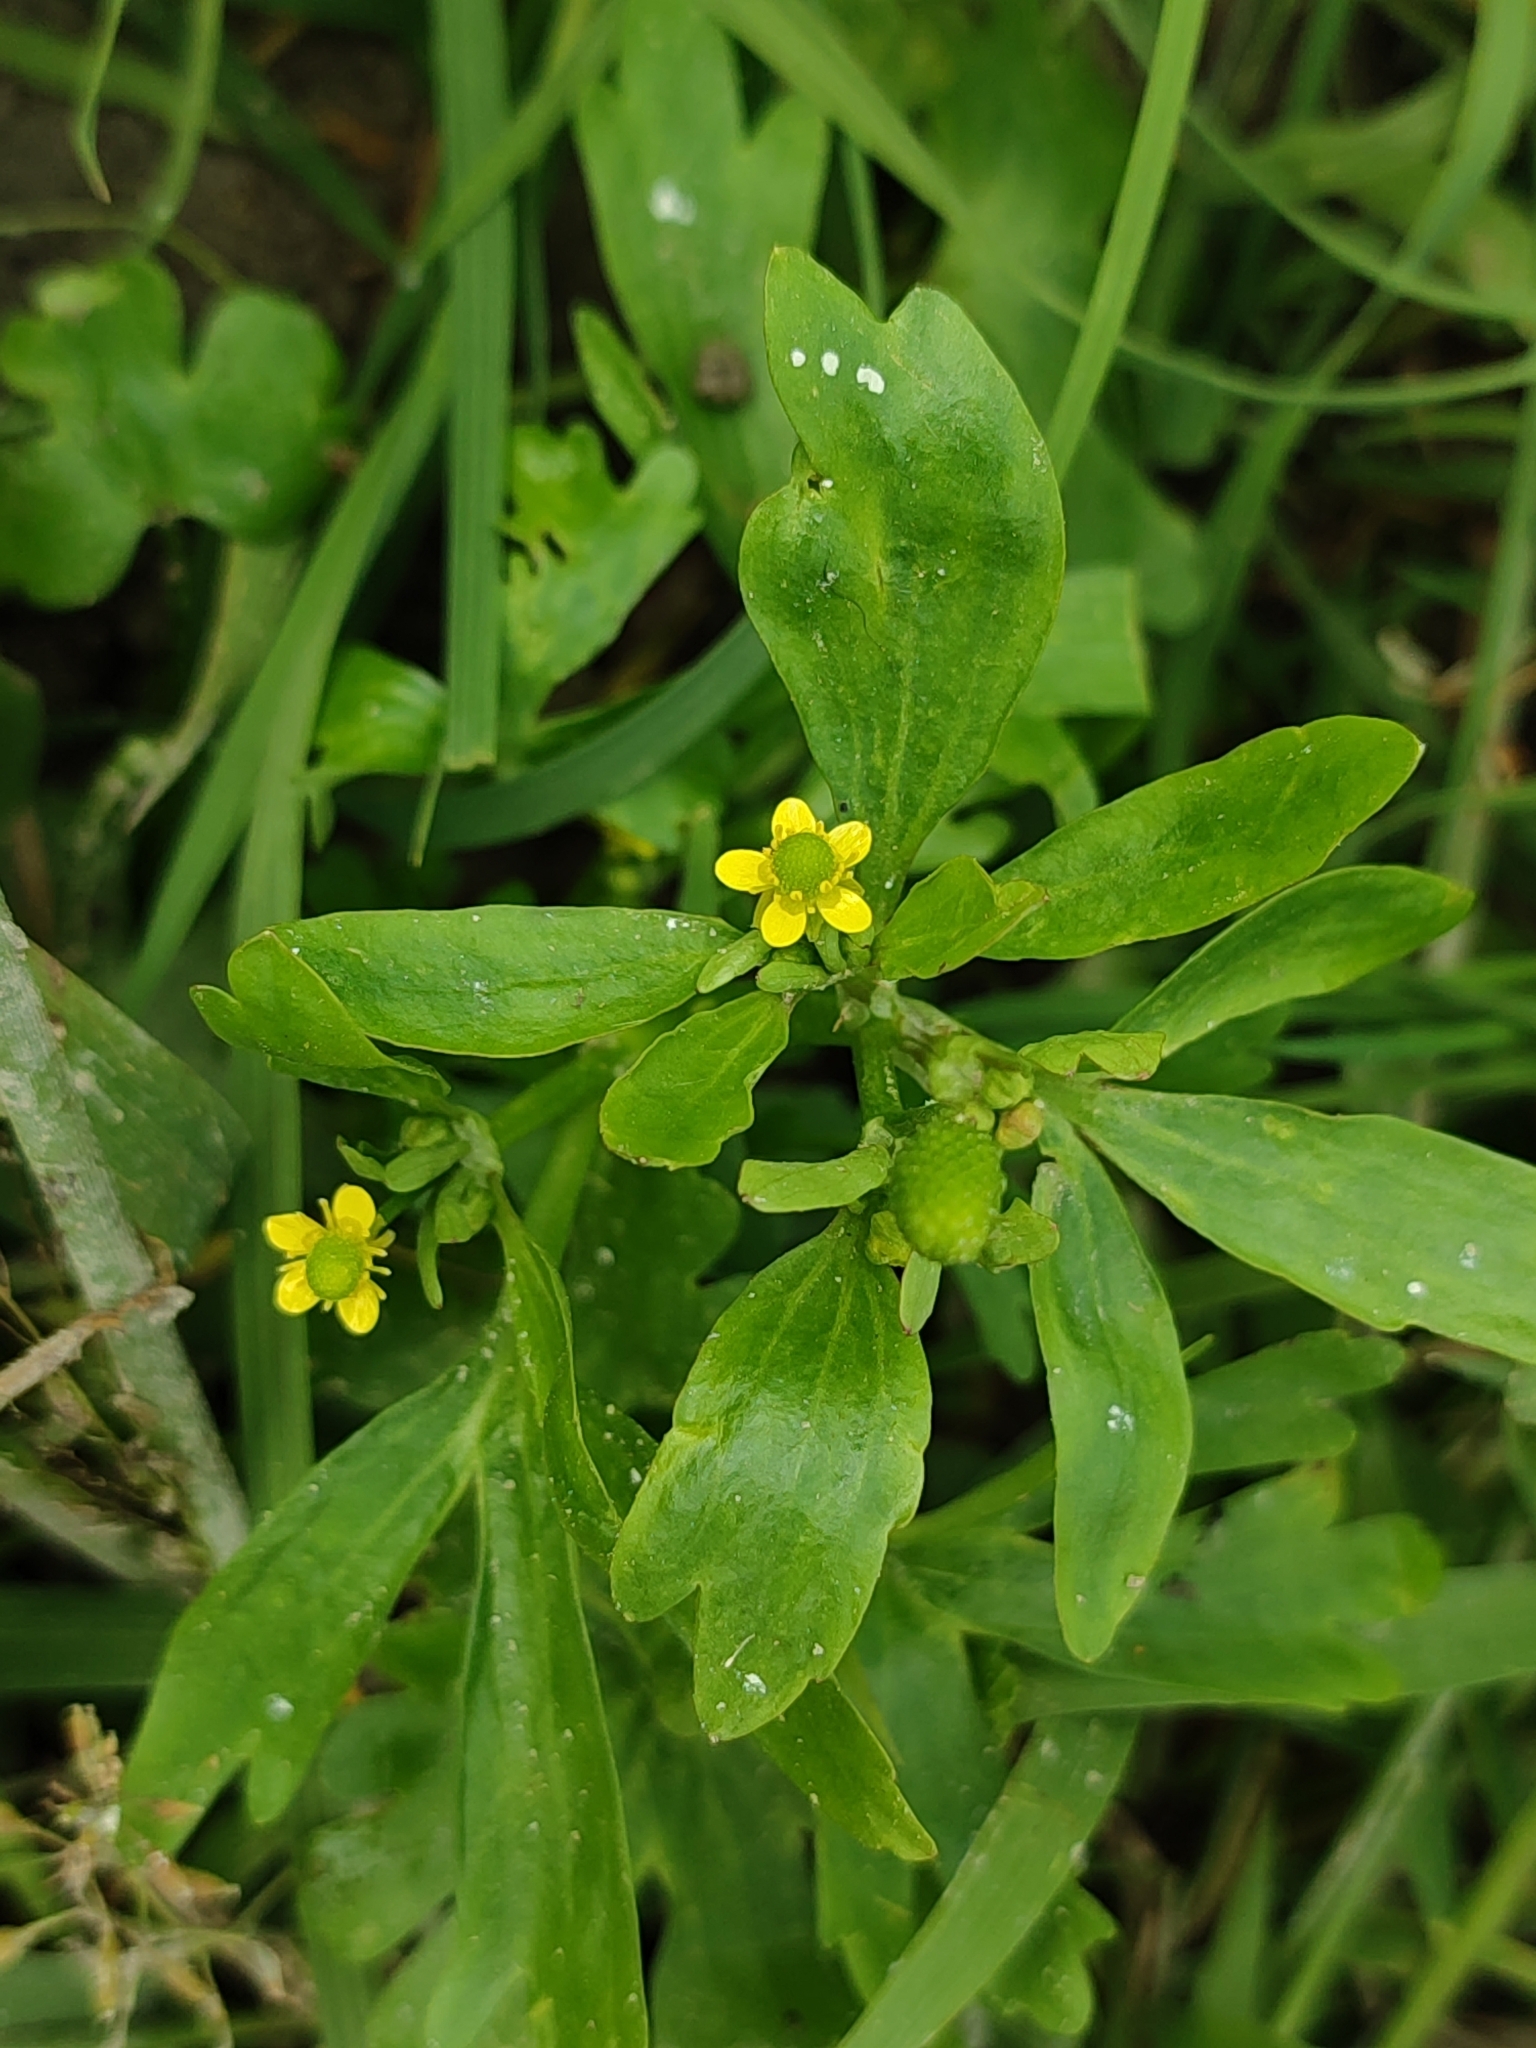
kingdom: Plantae
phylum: Tracheophyta
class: Magnoliopsida
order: Ranunculales
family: Ranunculaceae
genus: Ranunculus
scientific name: Ranunculus sceleratus
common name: Celery-leaved buttercup
